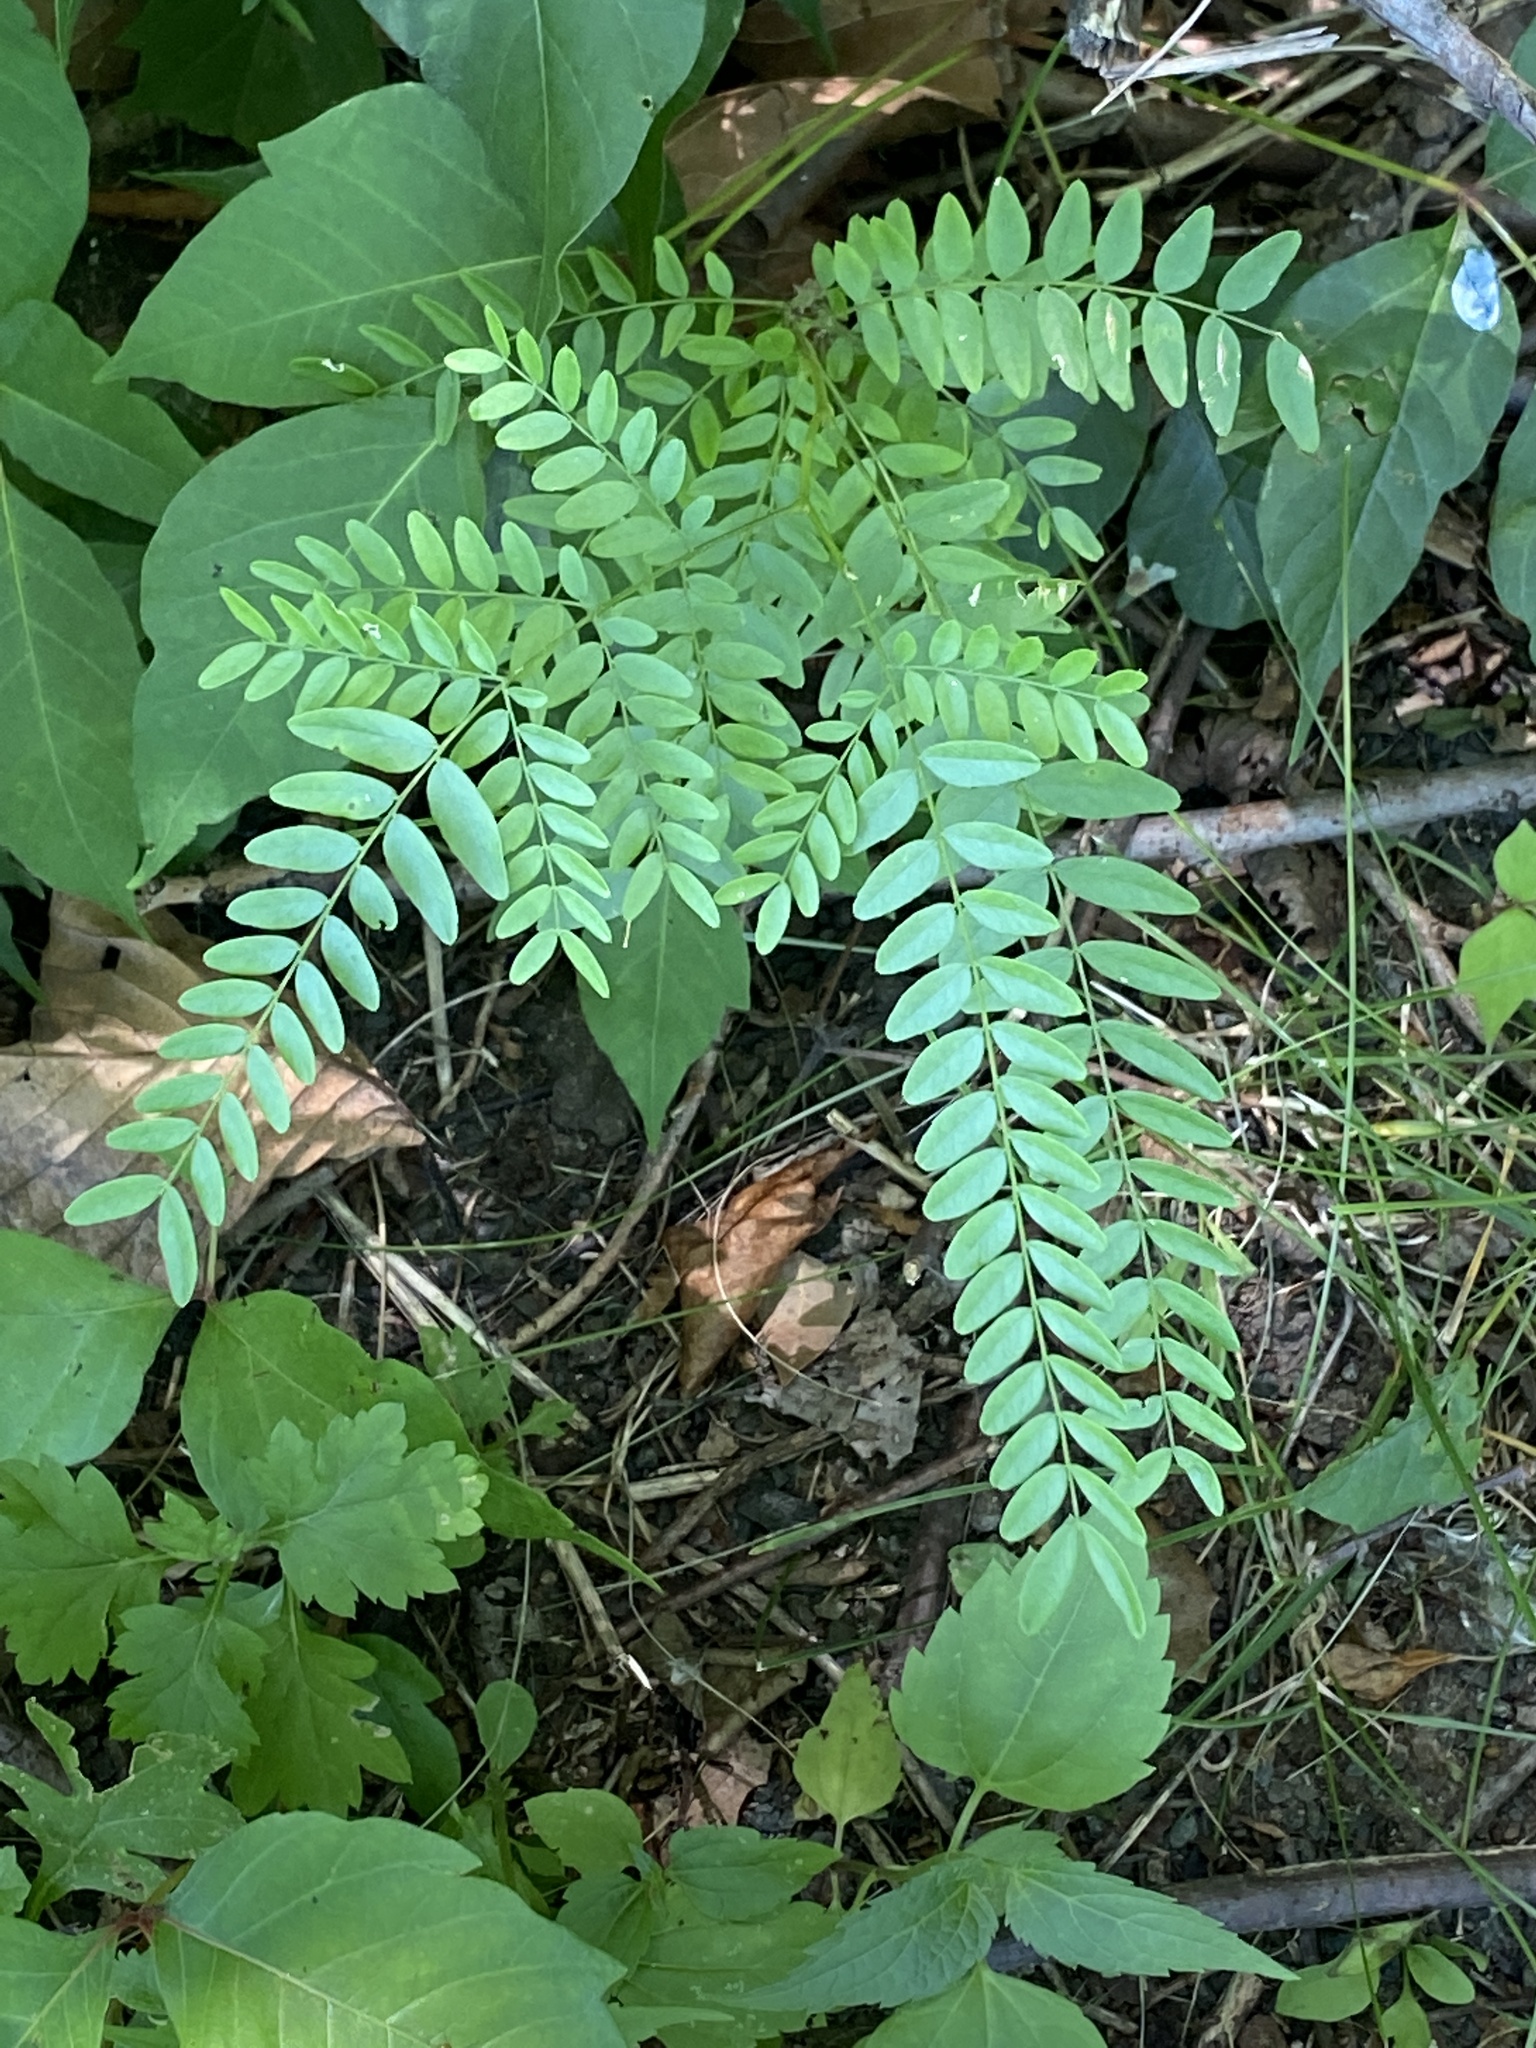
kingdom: Plantae
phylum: Tracheophyta
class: Magnoliopsida
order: Fabales
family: Fabaceae
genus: Gleditsia
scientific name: Gleditsia triacanthos
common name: Common honeylocust
